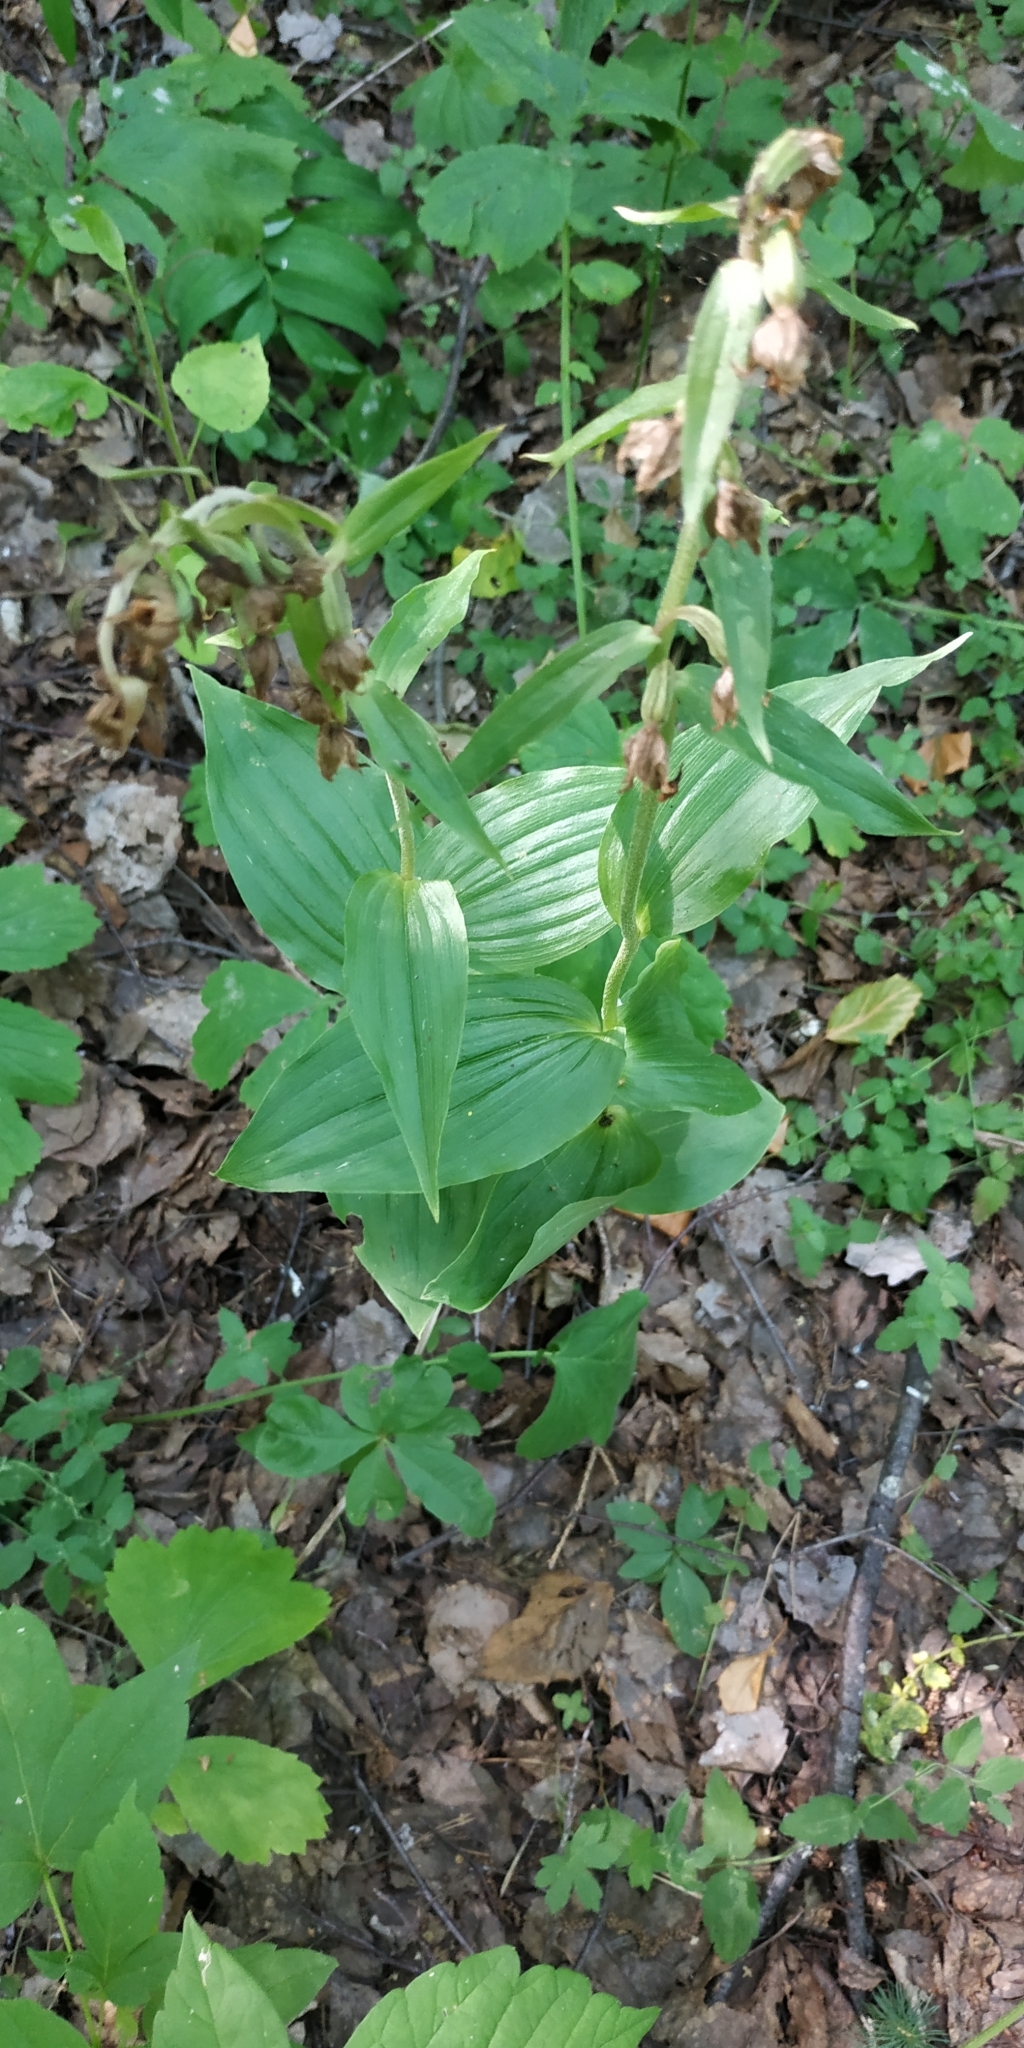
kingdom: Plantae
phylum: Tracheophyta
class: Liliopsida
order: Asparagales
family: Orchidaceae
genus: Epipactis
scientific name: Epipactis helleborine
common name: Broad-leaved helleborine
